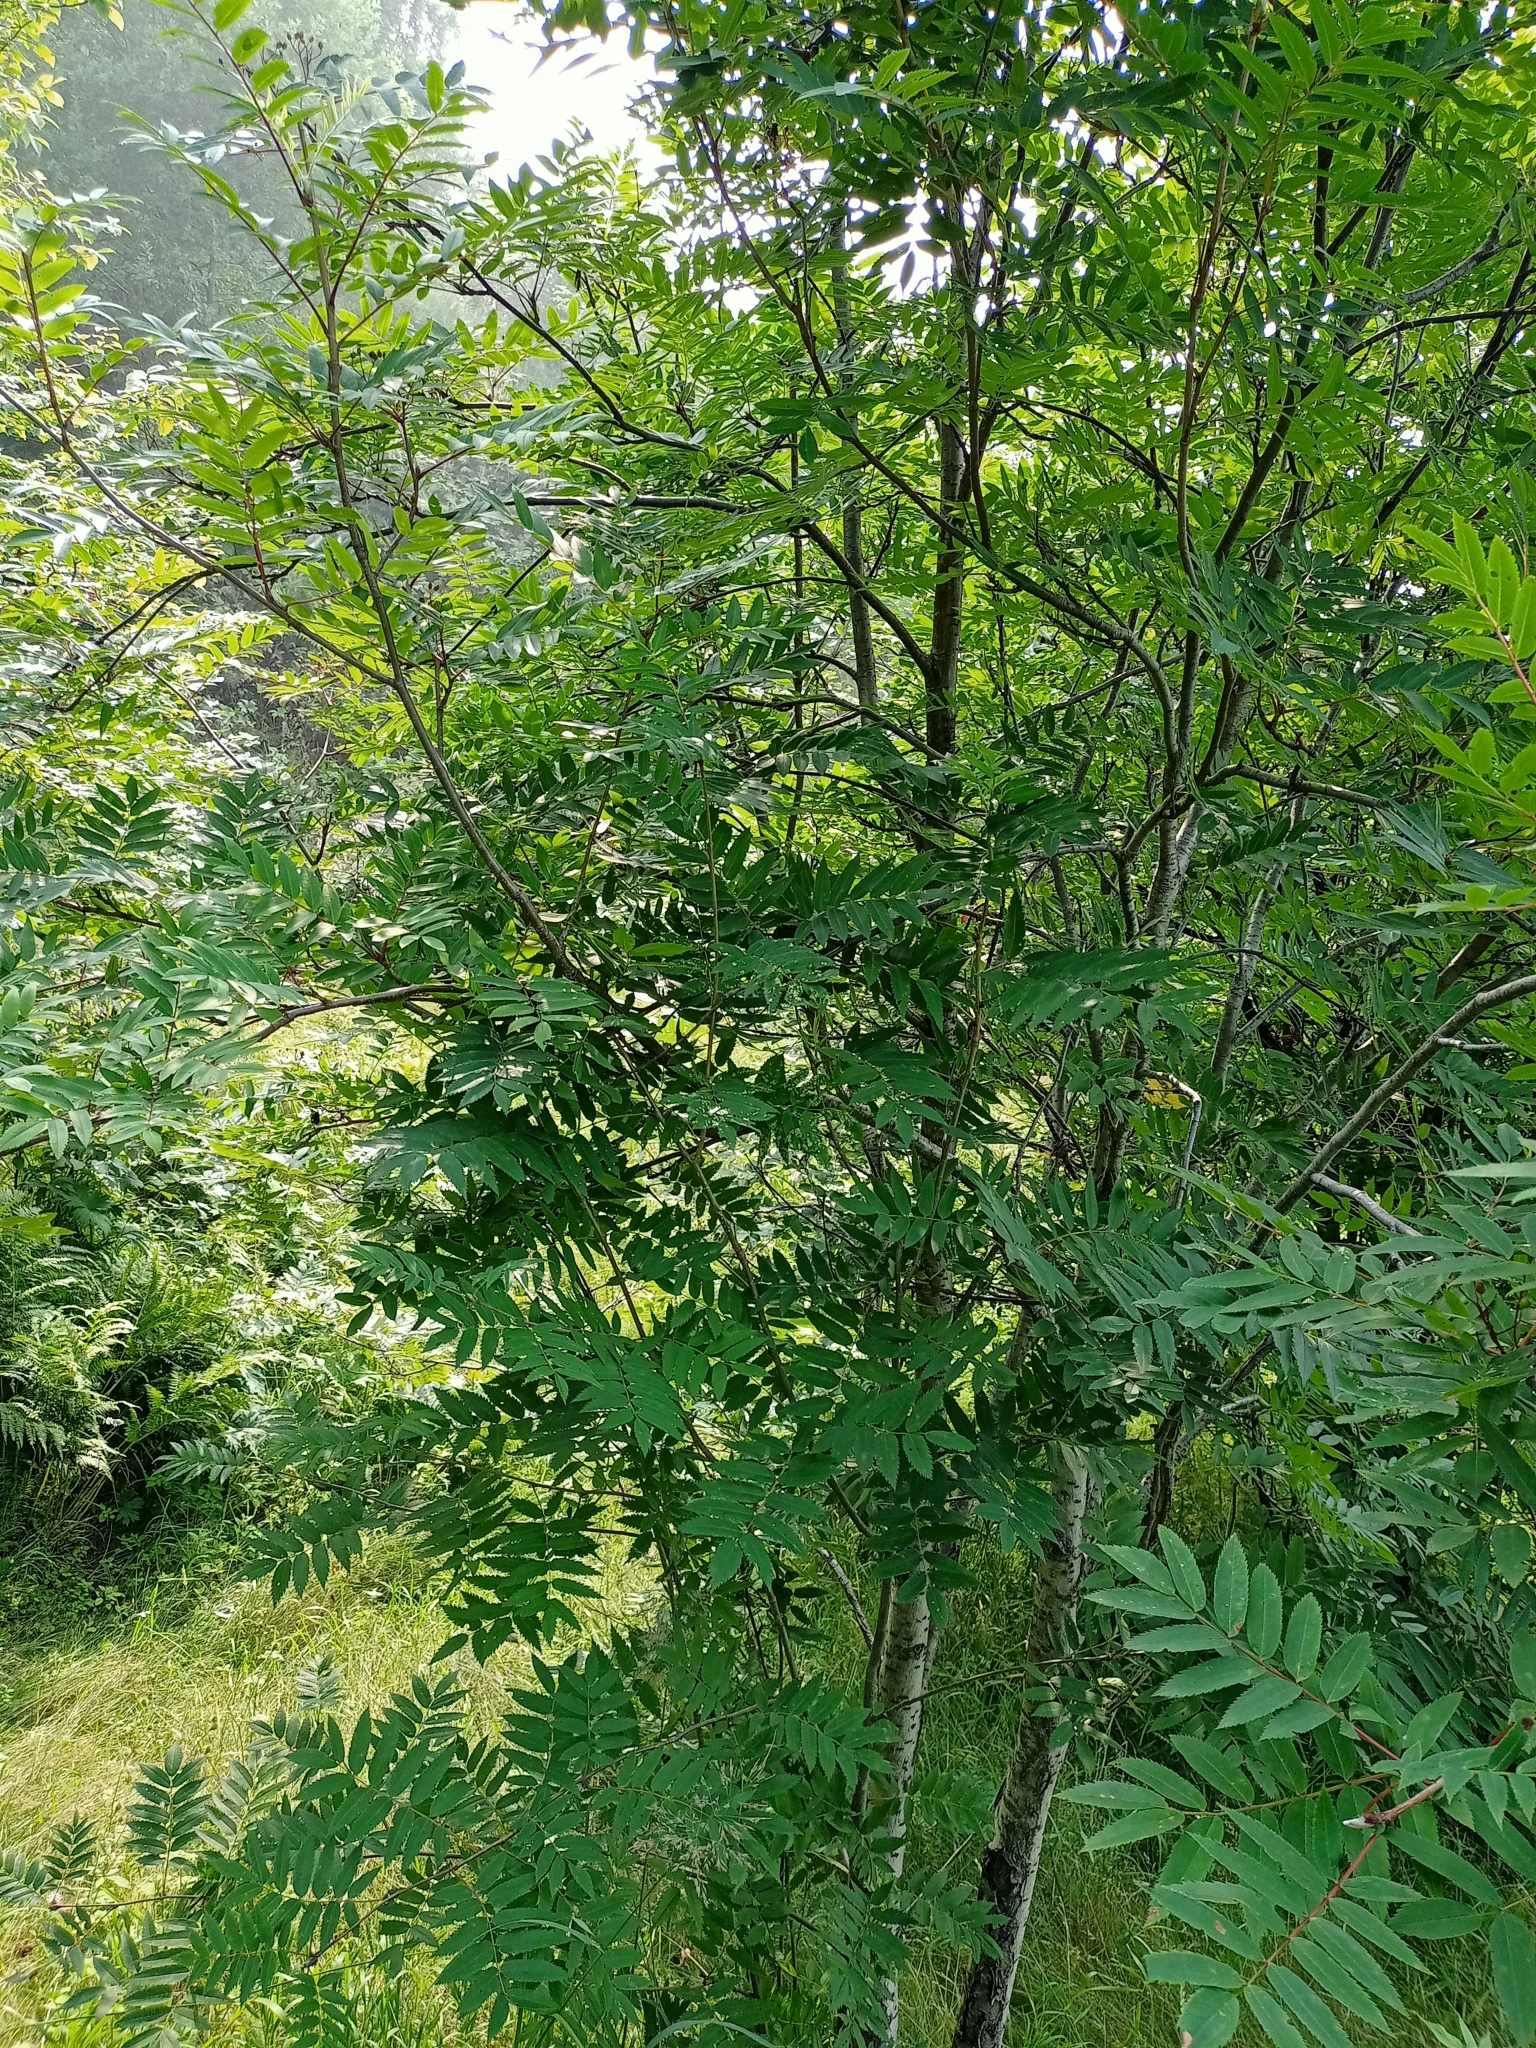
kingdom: Plantae
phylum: Tracheophyta
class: Magnoliopsida
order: Rosales
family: Rosaceae
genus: Sorbus
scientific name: Sorbus aucuparia
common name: Rowan
